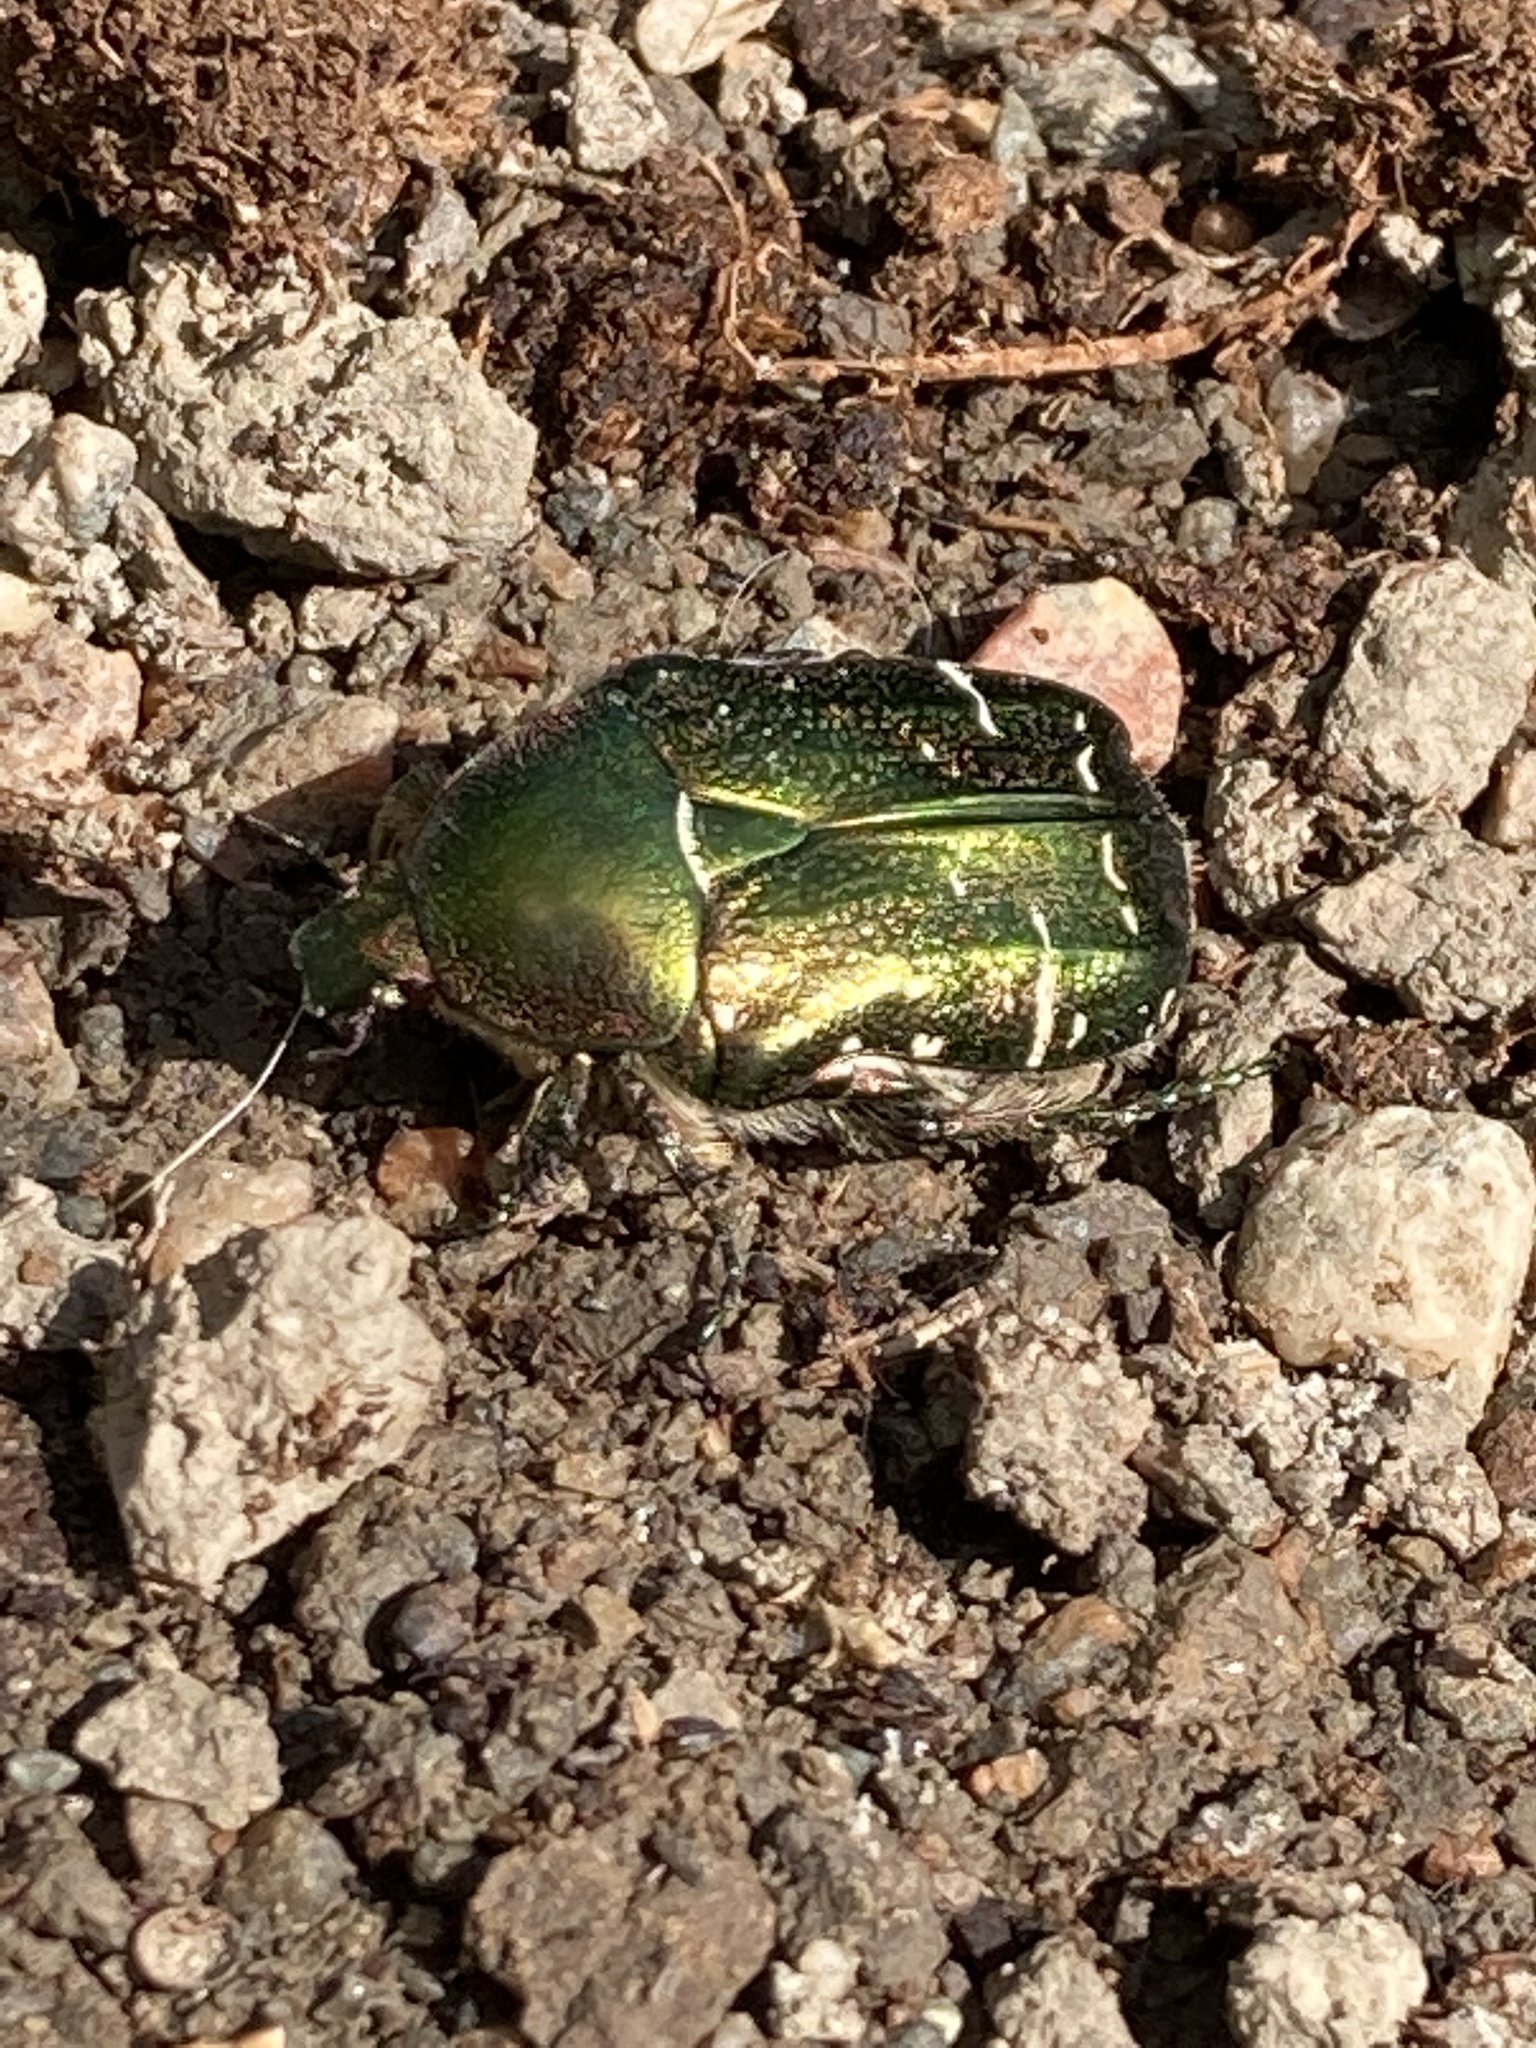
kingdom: Animalia
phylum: Arthropoda
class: Insecta
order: Coleoptera
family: Scarabaeidae
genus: Cetonia
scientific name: Cetonia aurata
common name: Rose chafer
